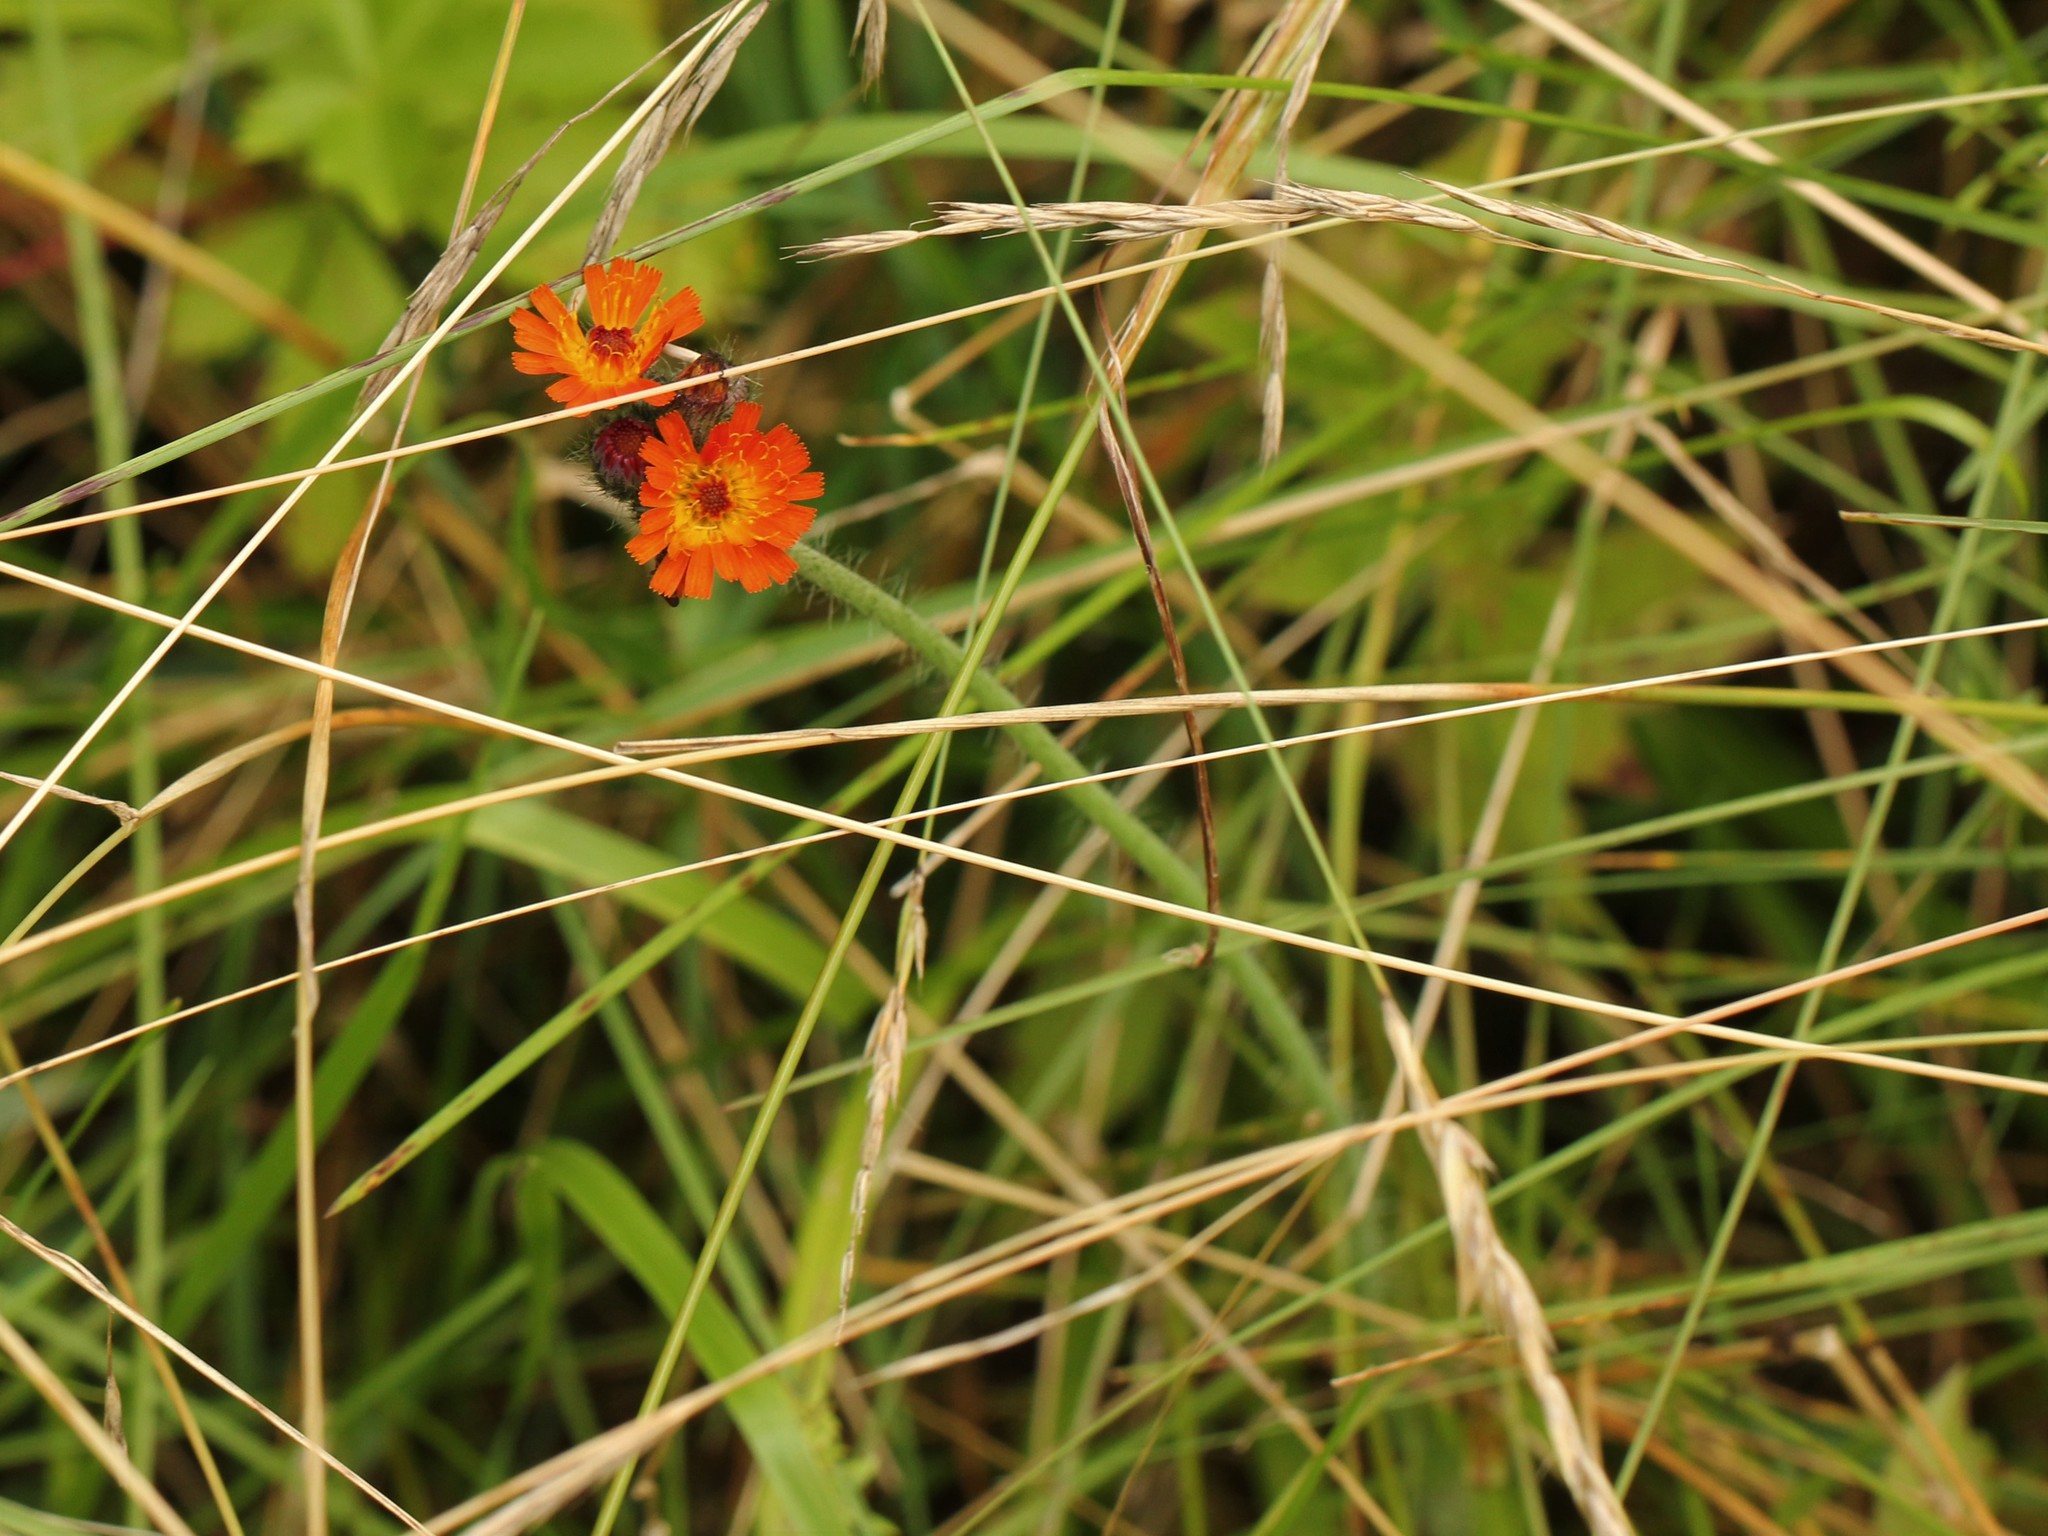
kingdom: Plantae
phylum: Tracheophyta
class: Magnoliopsida
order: Asterales
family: Asteraceae
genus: Pilosella
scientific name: Pilosella aurantiaca
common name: Fox-and-cubs
